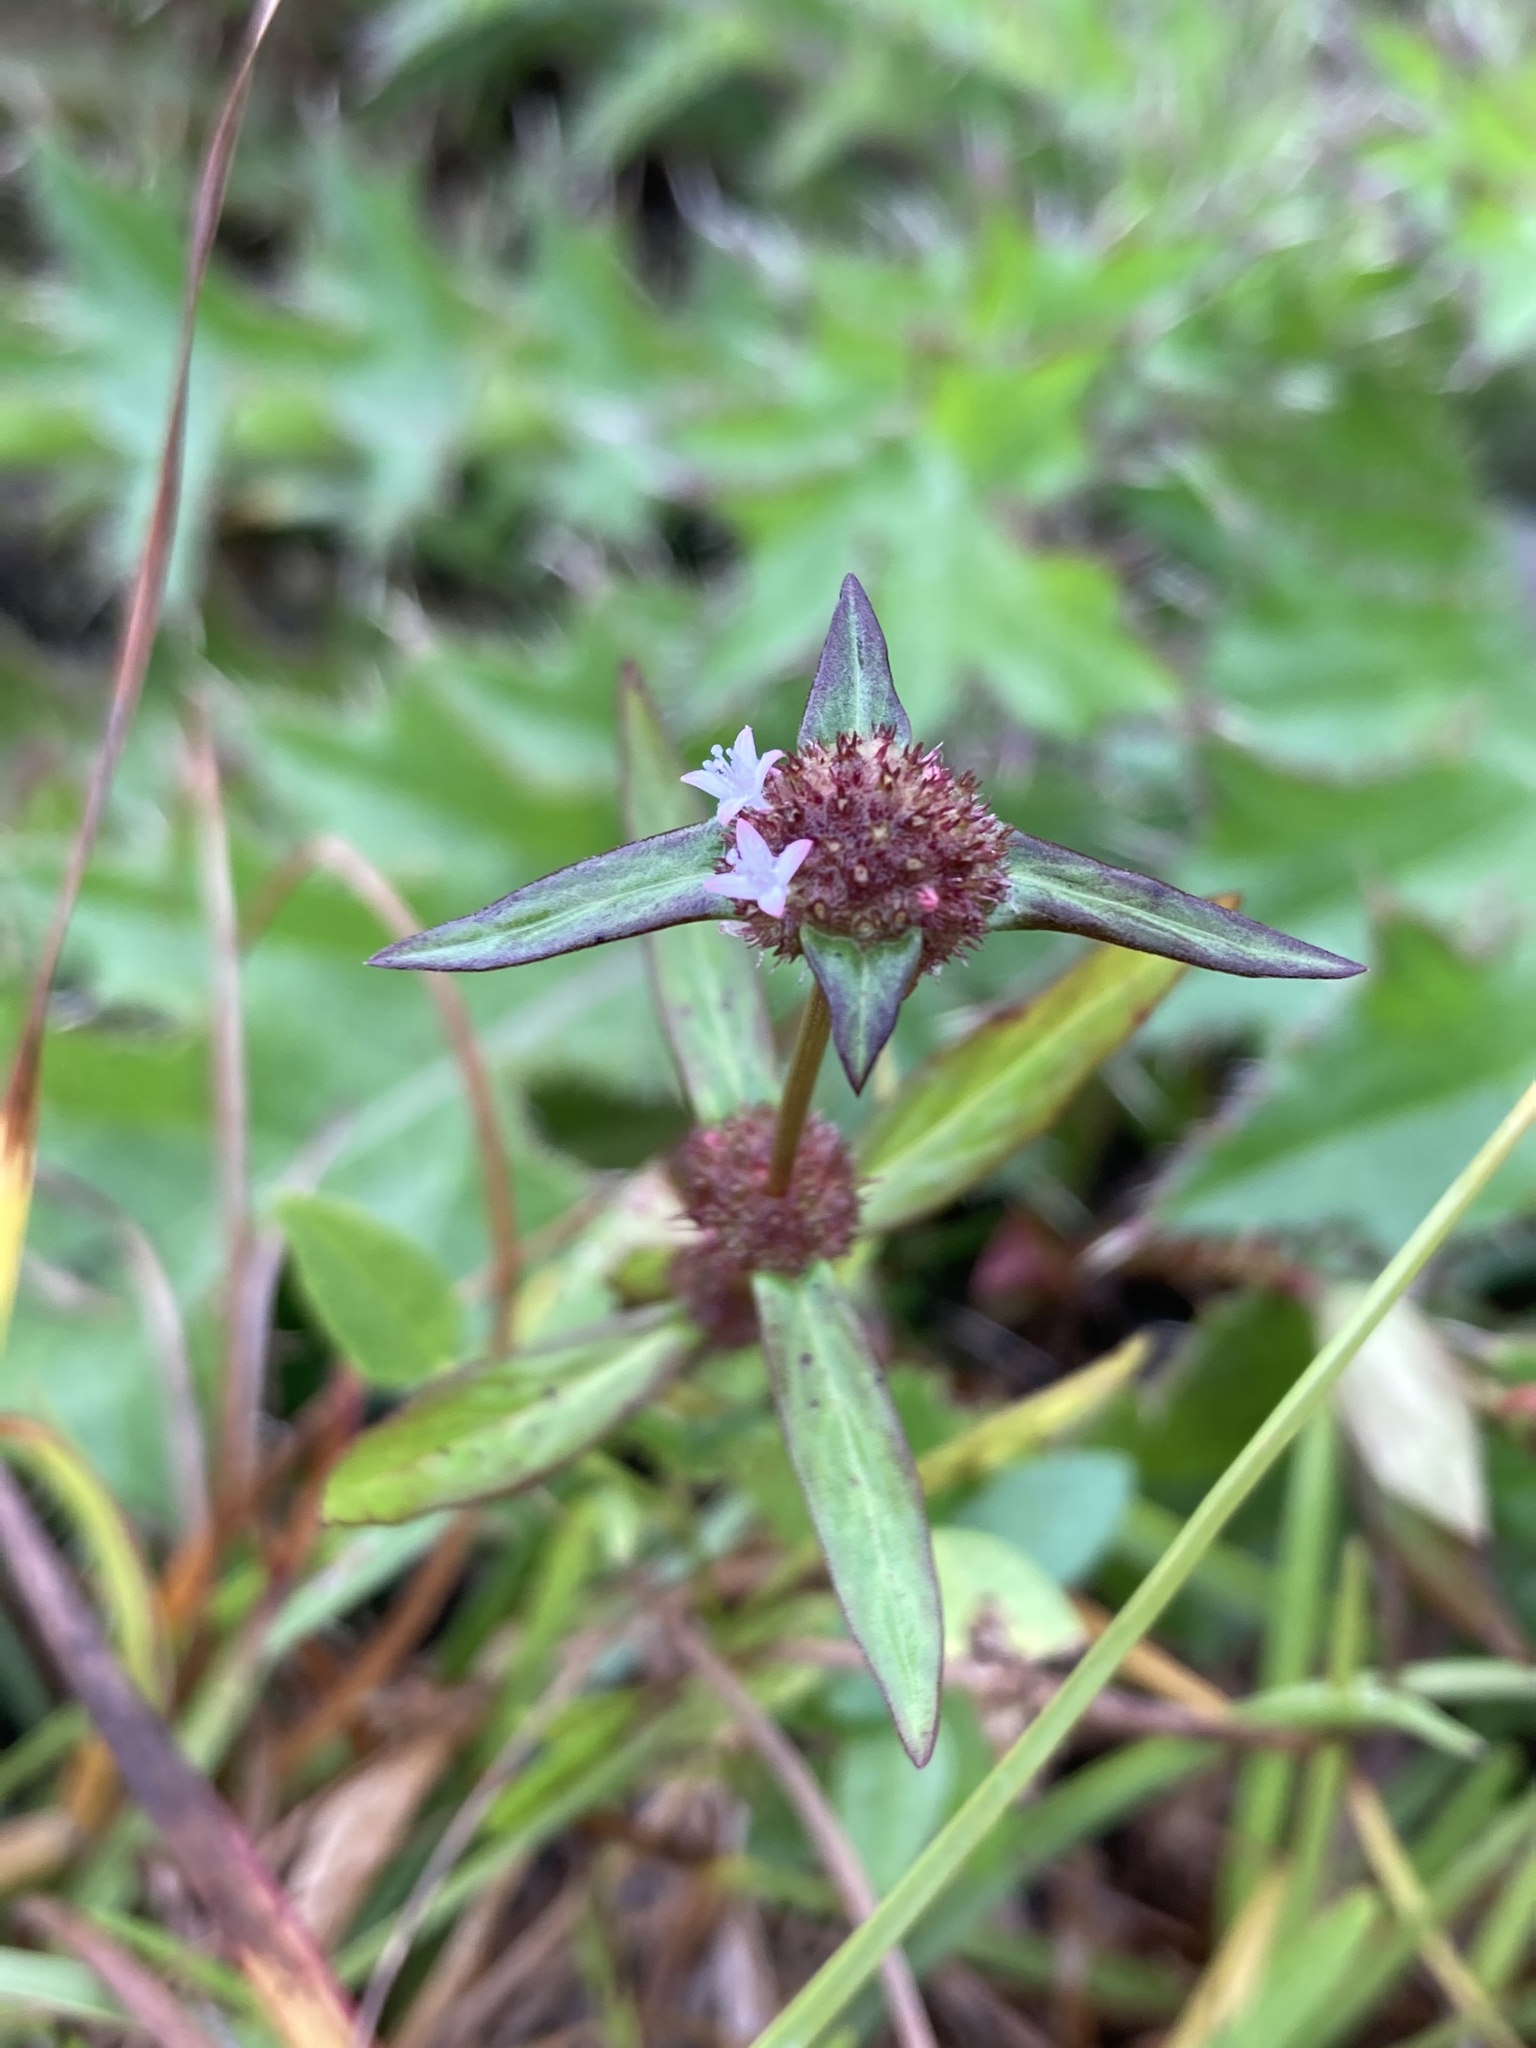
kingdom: Plantae
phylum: Tracheophyta
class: Magnoliopsida
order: Gentianales
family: Rubiaceae
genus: Spermacoce
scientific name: Spermacoce remota
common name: Woodland false buttonweed
